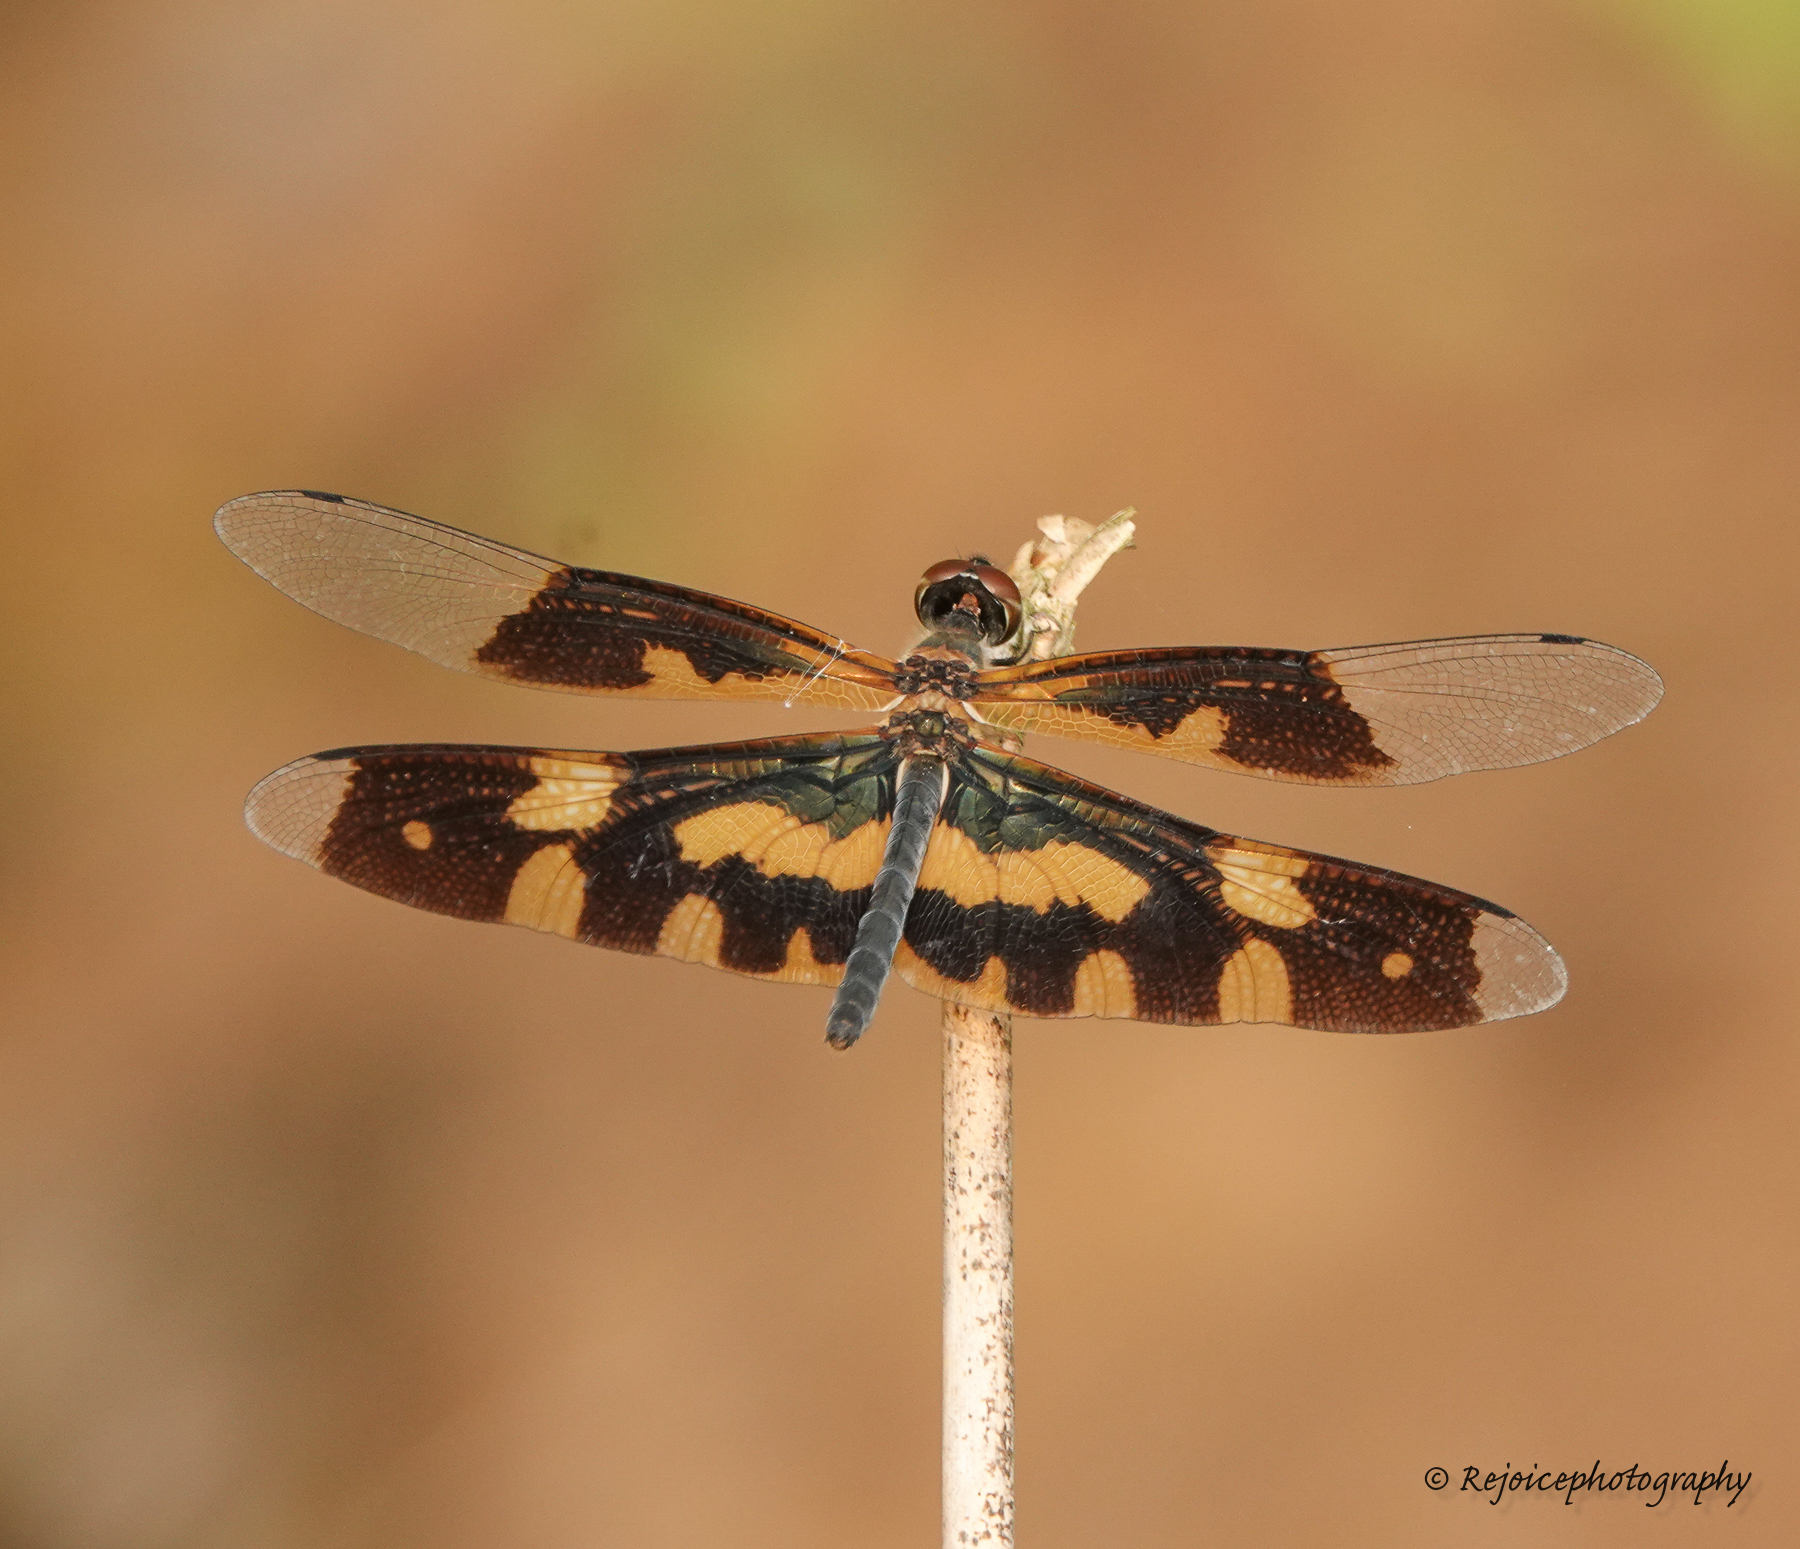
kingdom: Animalia
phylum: Arthropoda
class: Insecta
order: Odonata
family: Libellulidae
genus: Rhyothemis
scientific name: Rhyothemis variegata
